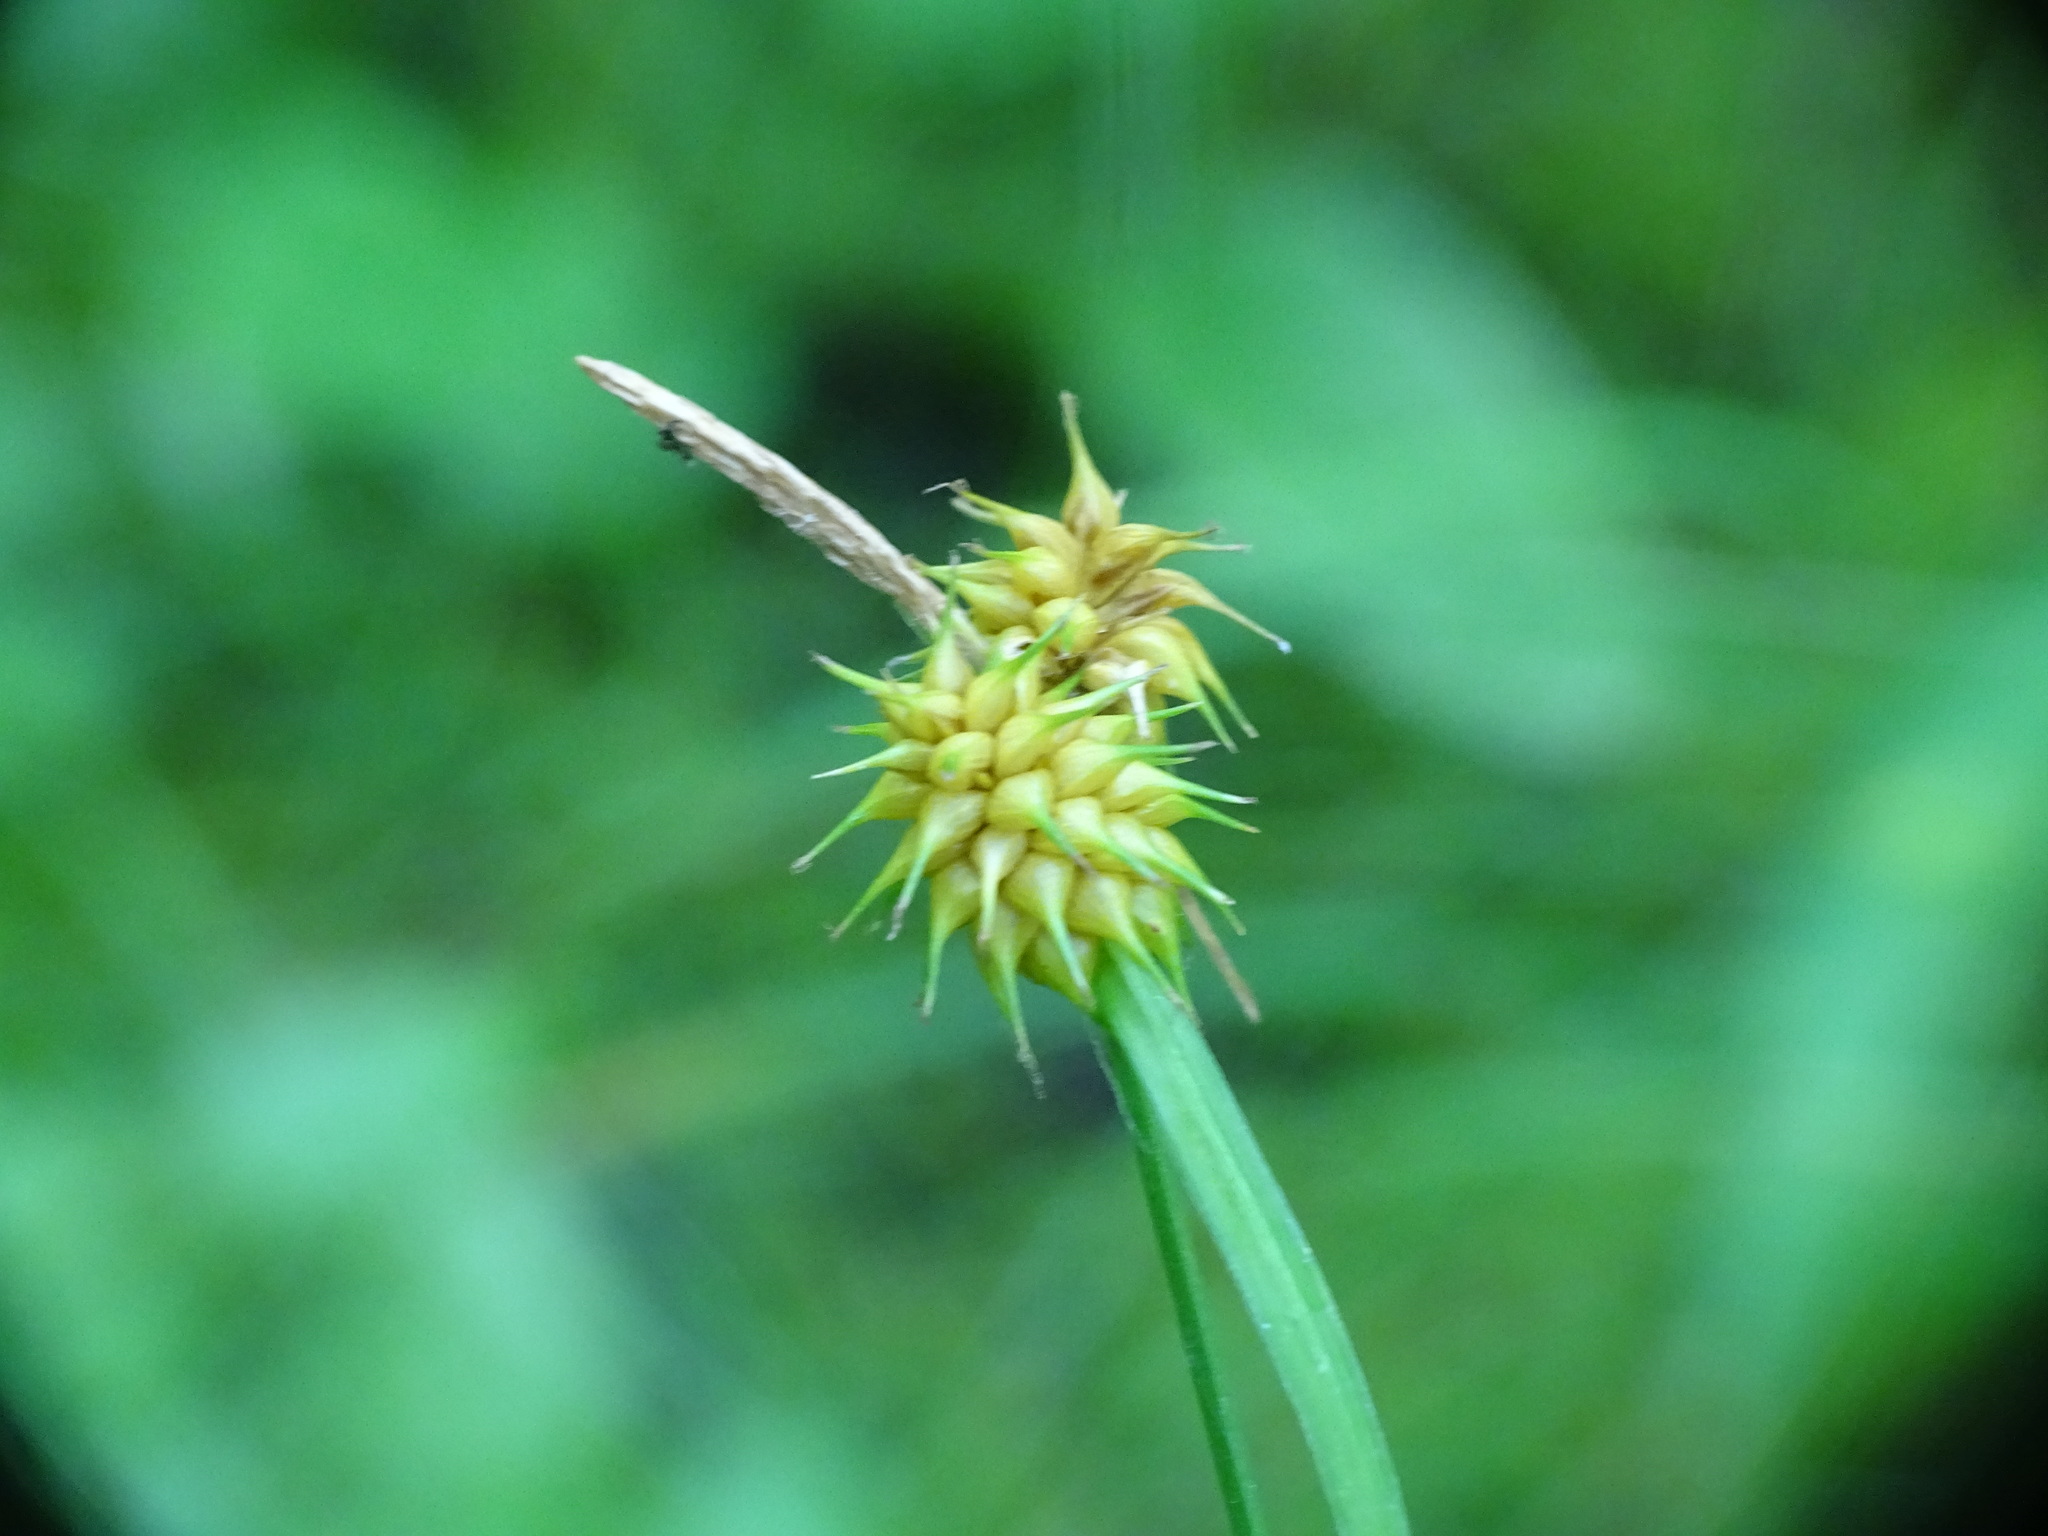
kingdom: Plantae
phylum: Tracheophyta
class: Liliopsida
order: Poales
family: Cyperaceae
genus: Carex
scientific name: Carex flava
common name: Large yellow-sedge
